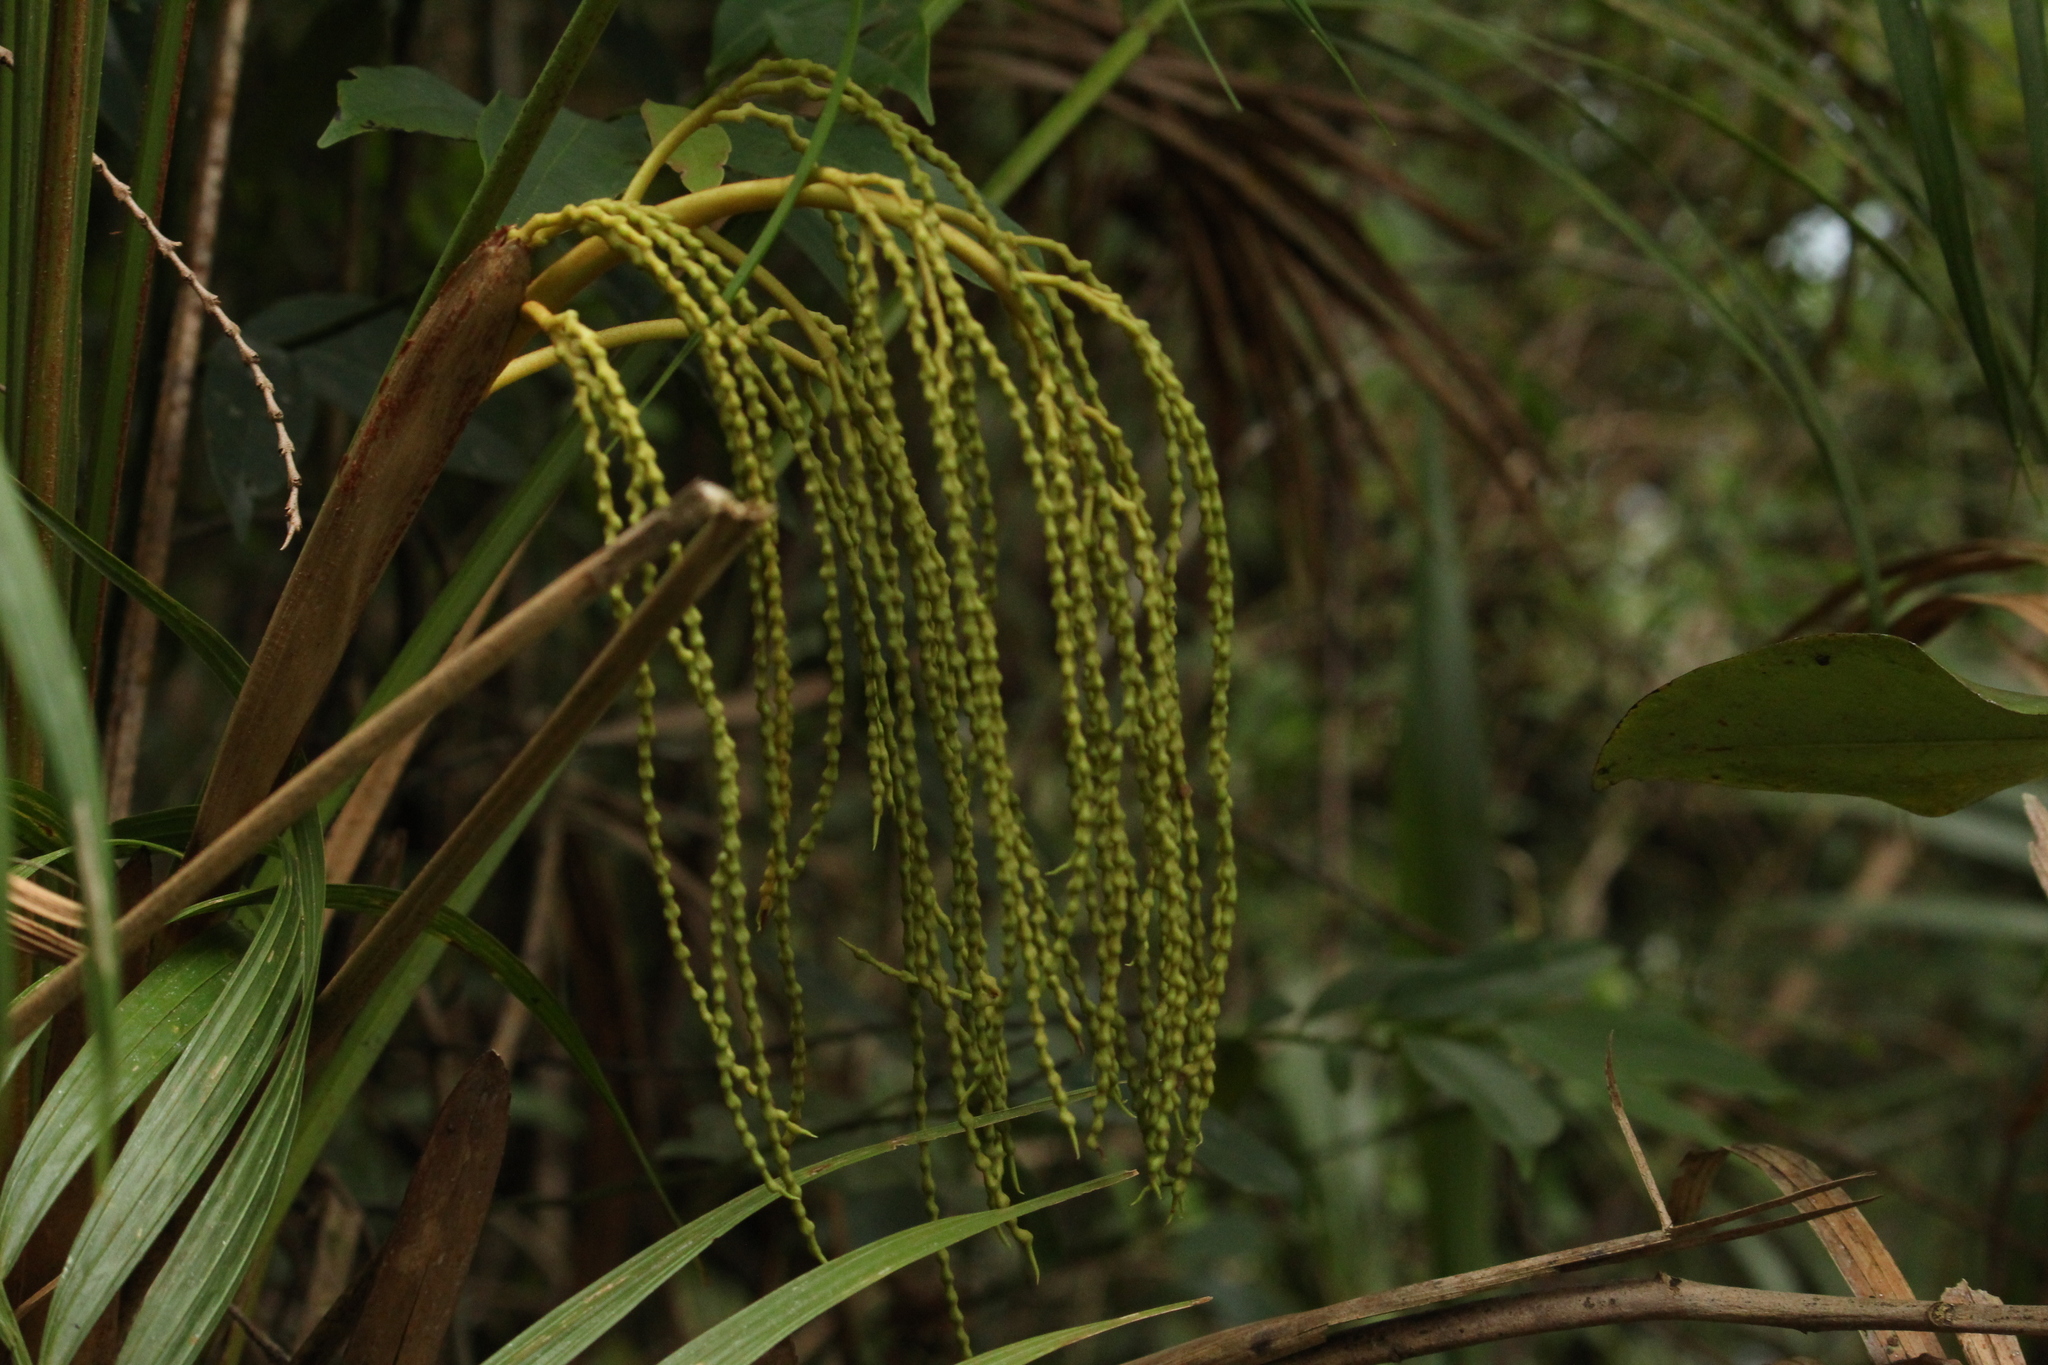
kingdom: Plantae
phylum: Tracheophyta
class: Liliopsida
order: Arecales
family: Arecaceae
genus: Geonoma
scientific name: Geonoma schottiana
